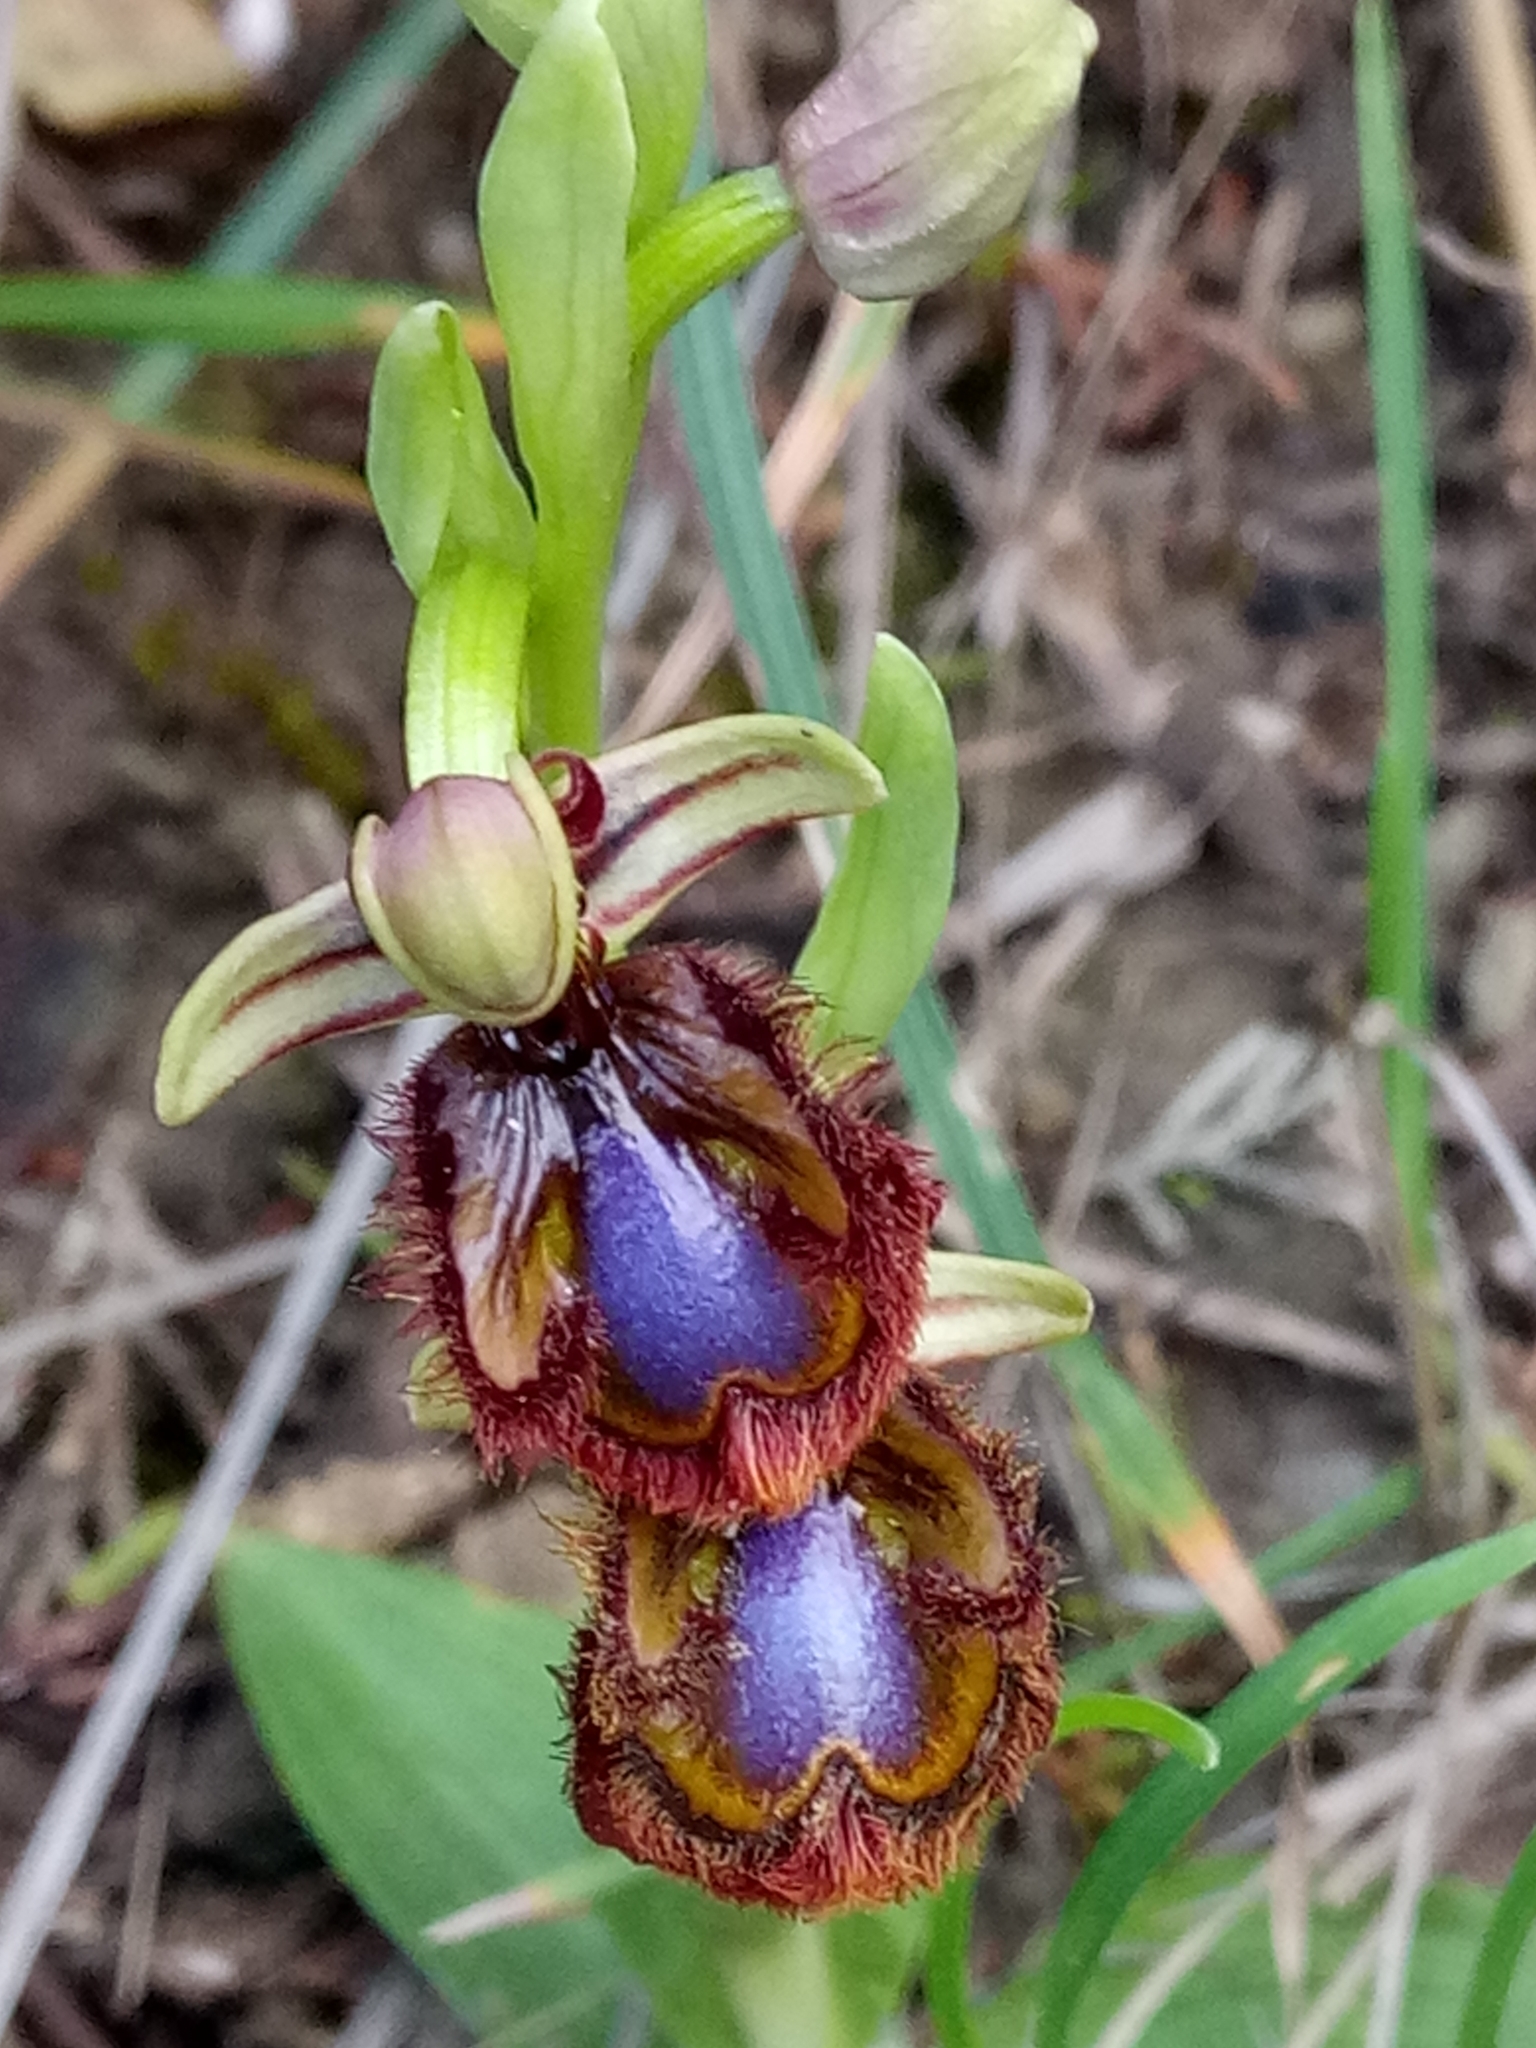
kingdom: Plantae
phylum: Tracheophyta
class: Liliopsida
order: Asparagales
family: Orchidaceae
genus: Ophrys
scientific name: Ophrys speculum
